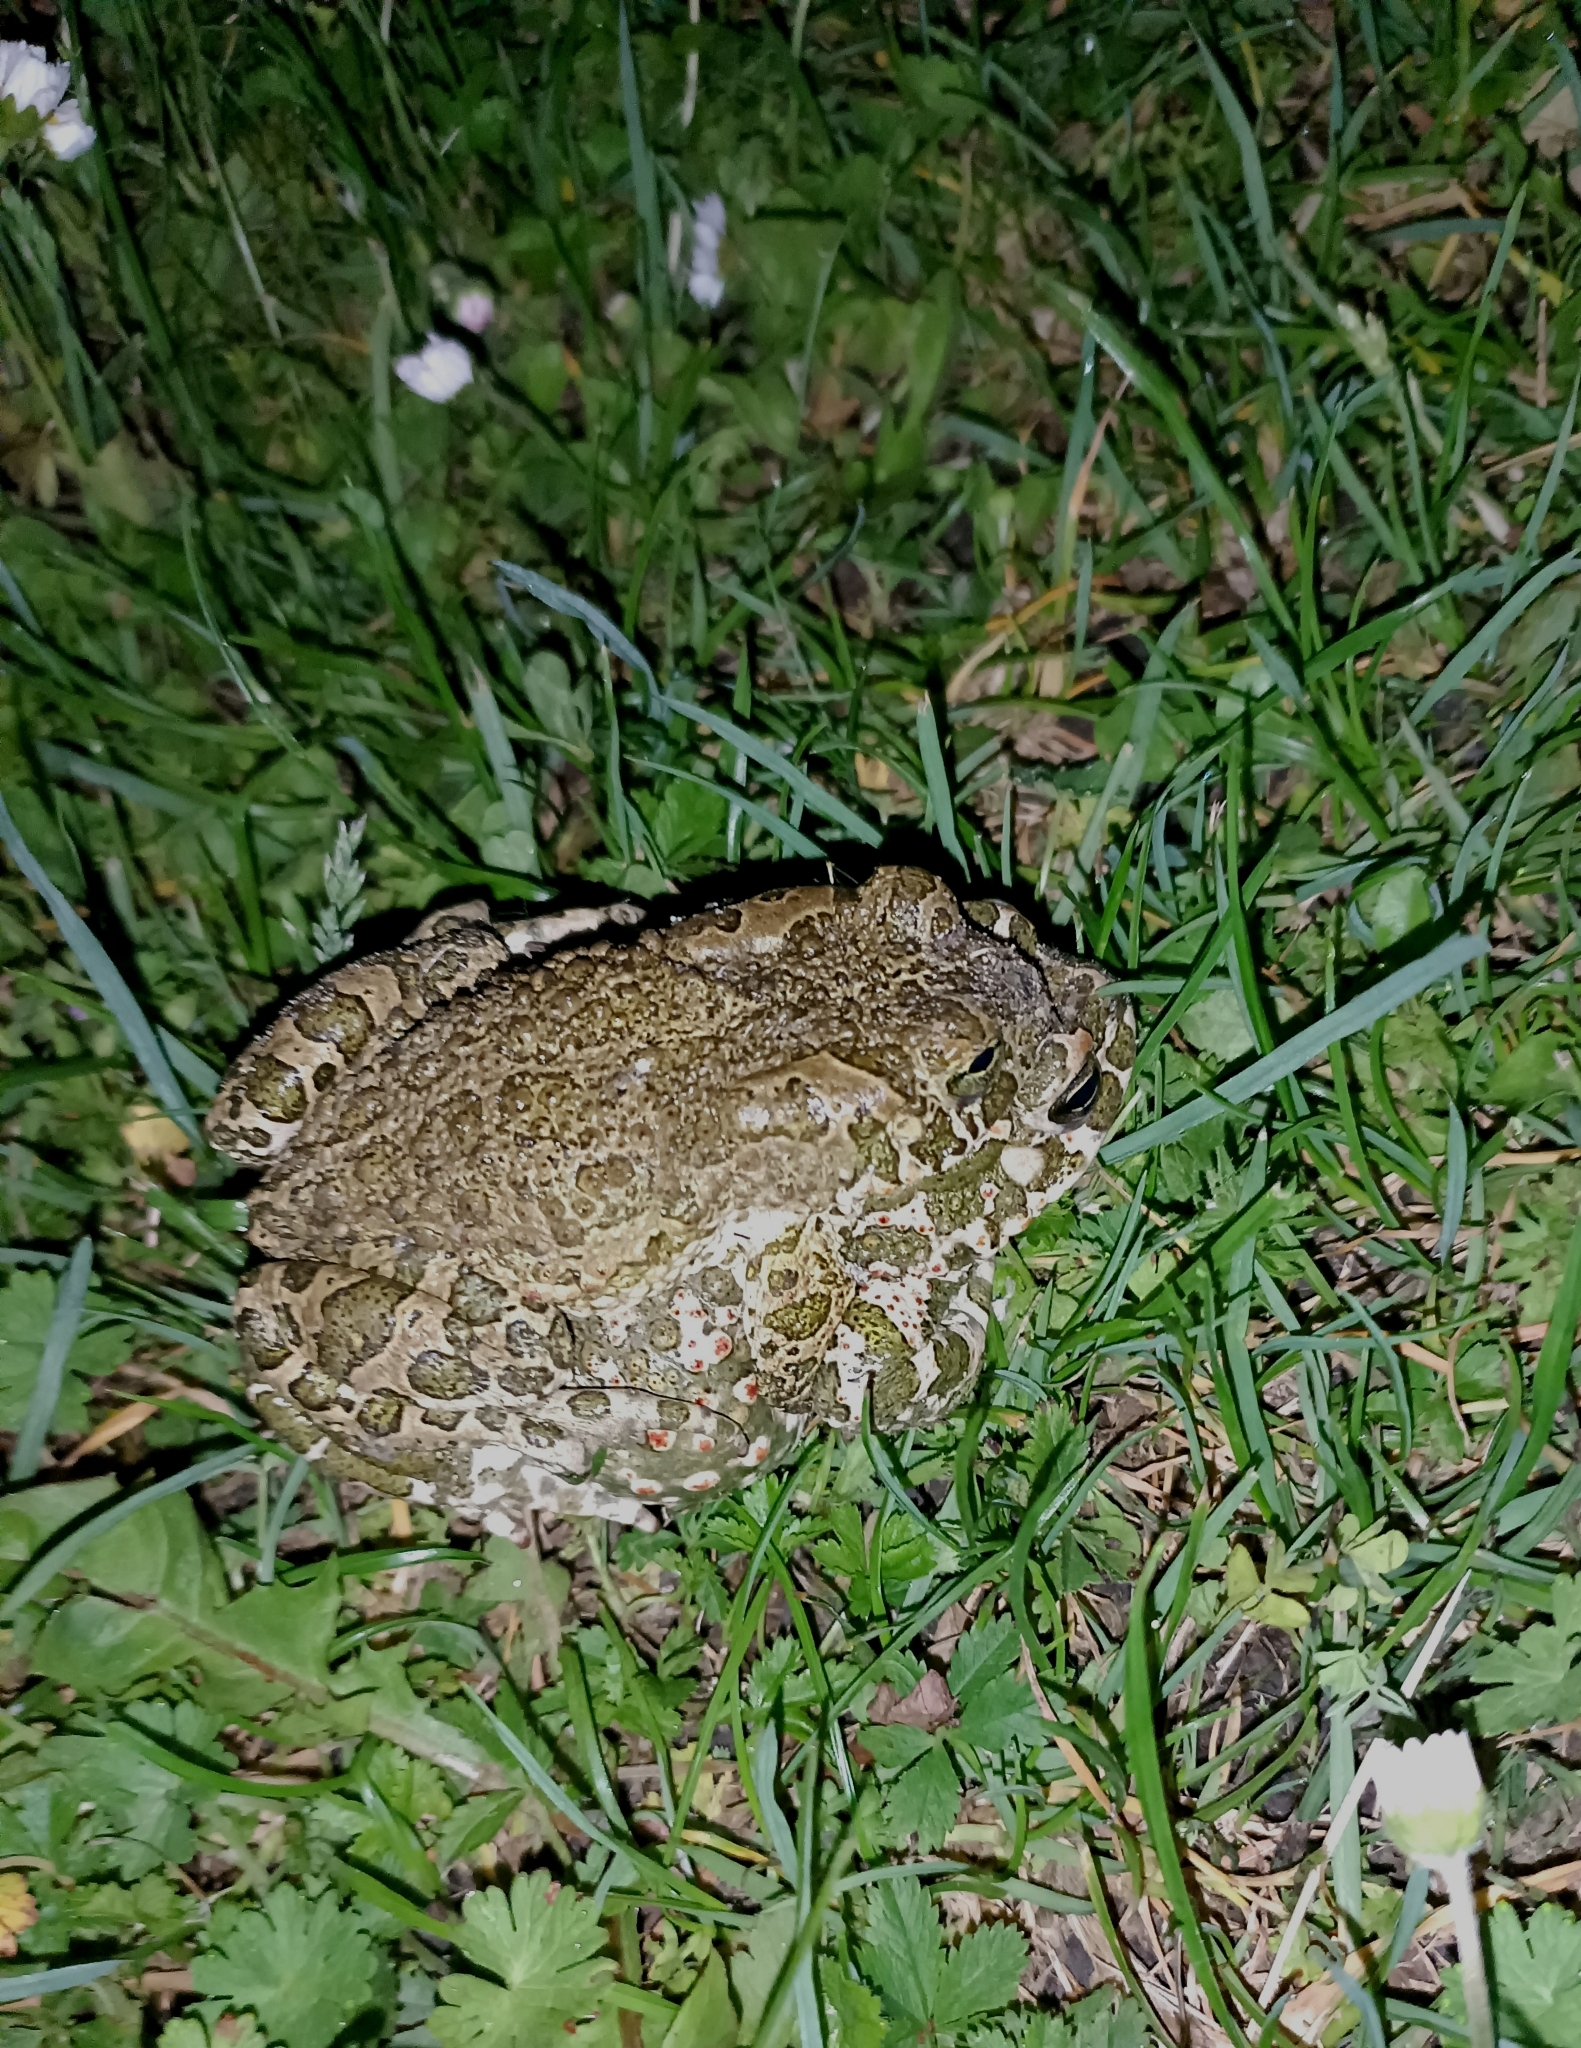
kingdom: Animalia
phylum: Chordata
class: Amphibia
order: Anura
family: Bufonidae
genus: Bufotes
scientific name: Bufotes viridis
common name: European green toad
